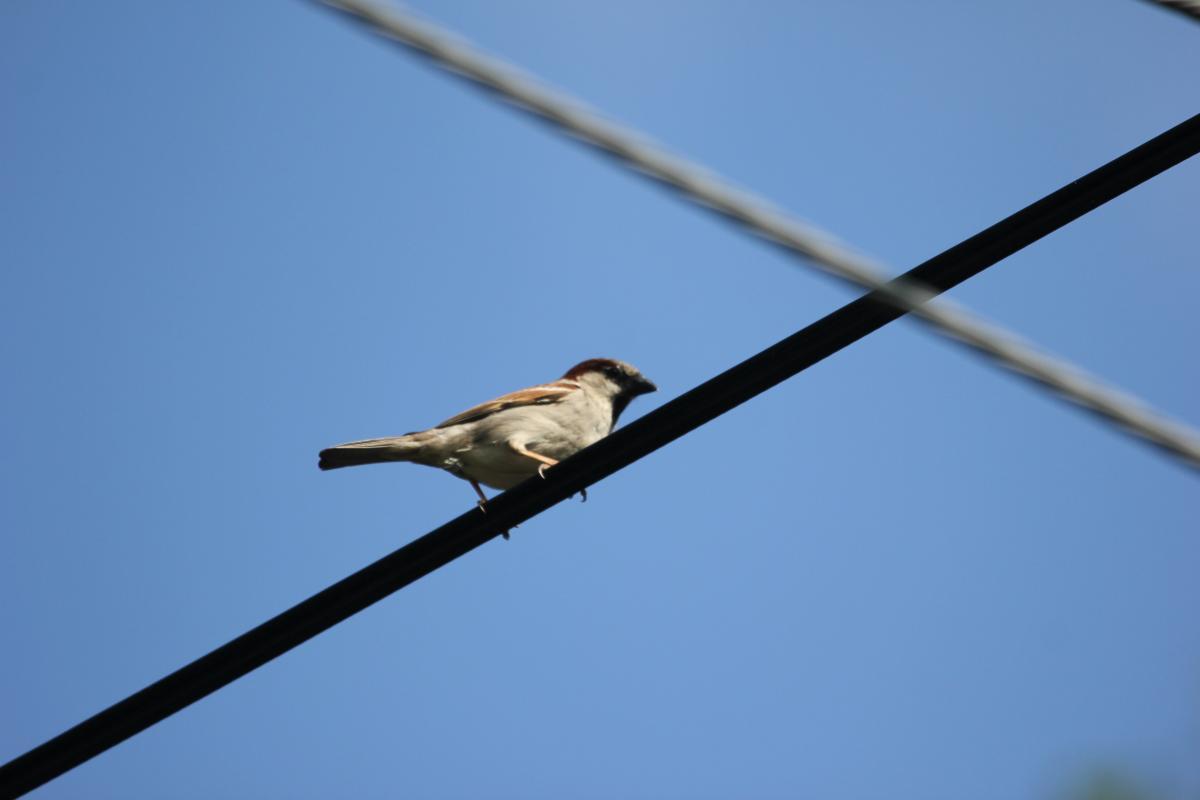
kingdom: Animalia
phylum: Chordata
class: Aves
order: Passeriformes
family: Passeridae
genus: Passer
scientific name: Passer domesticus
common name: House sparrow
